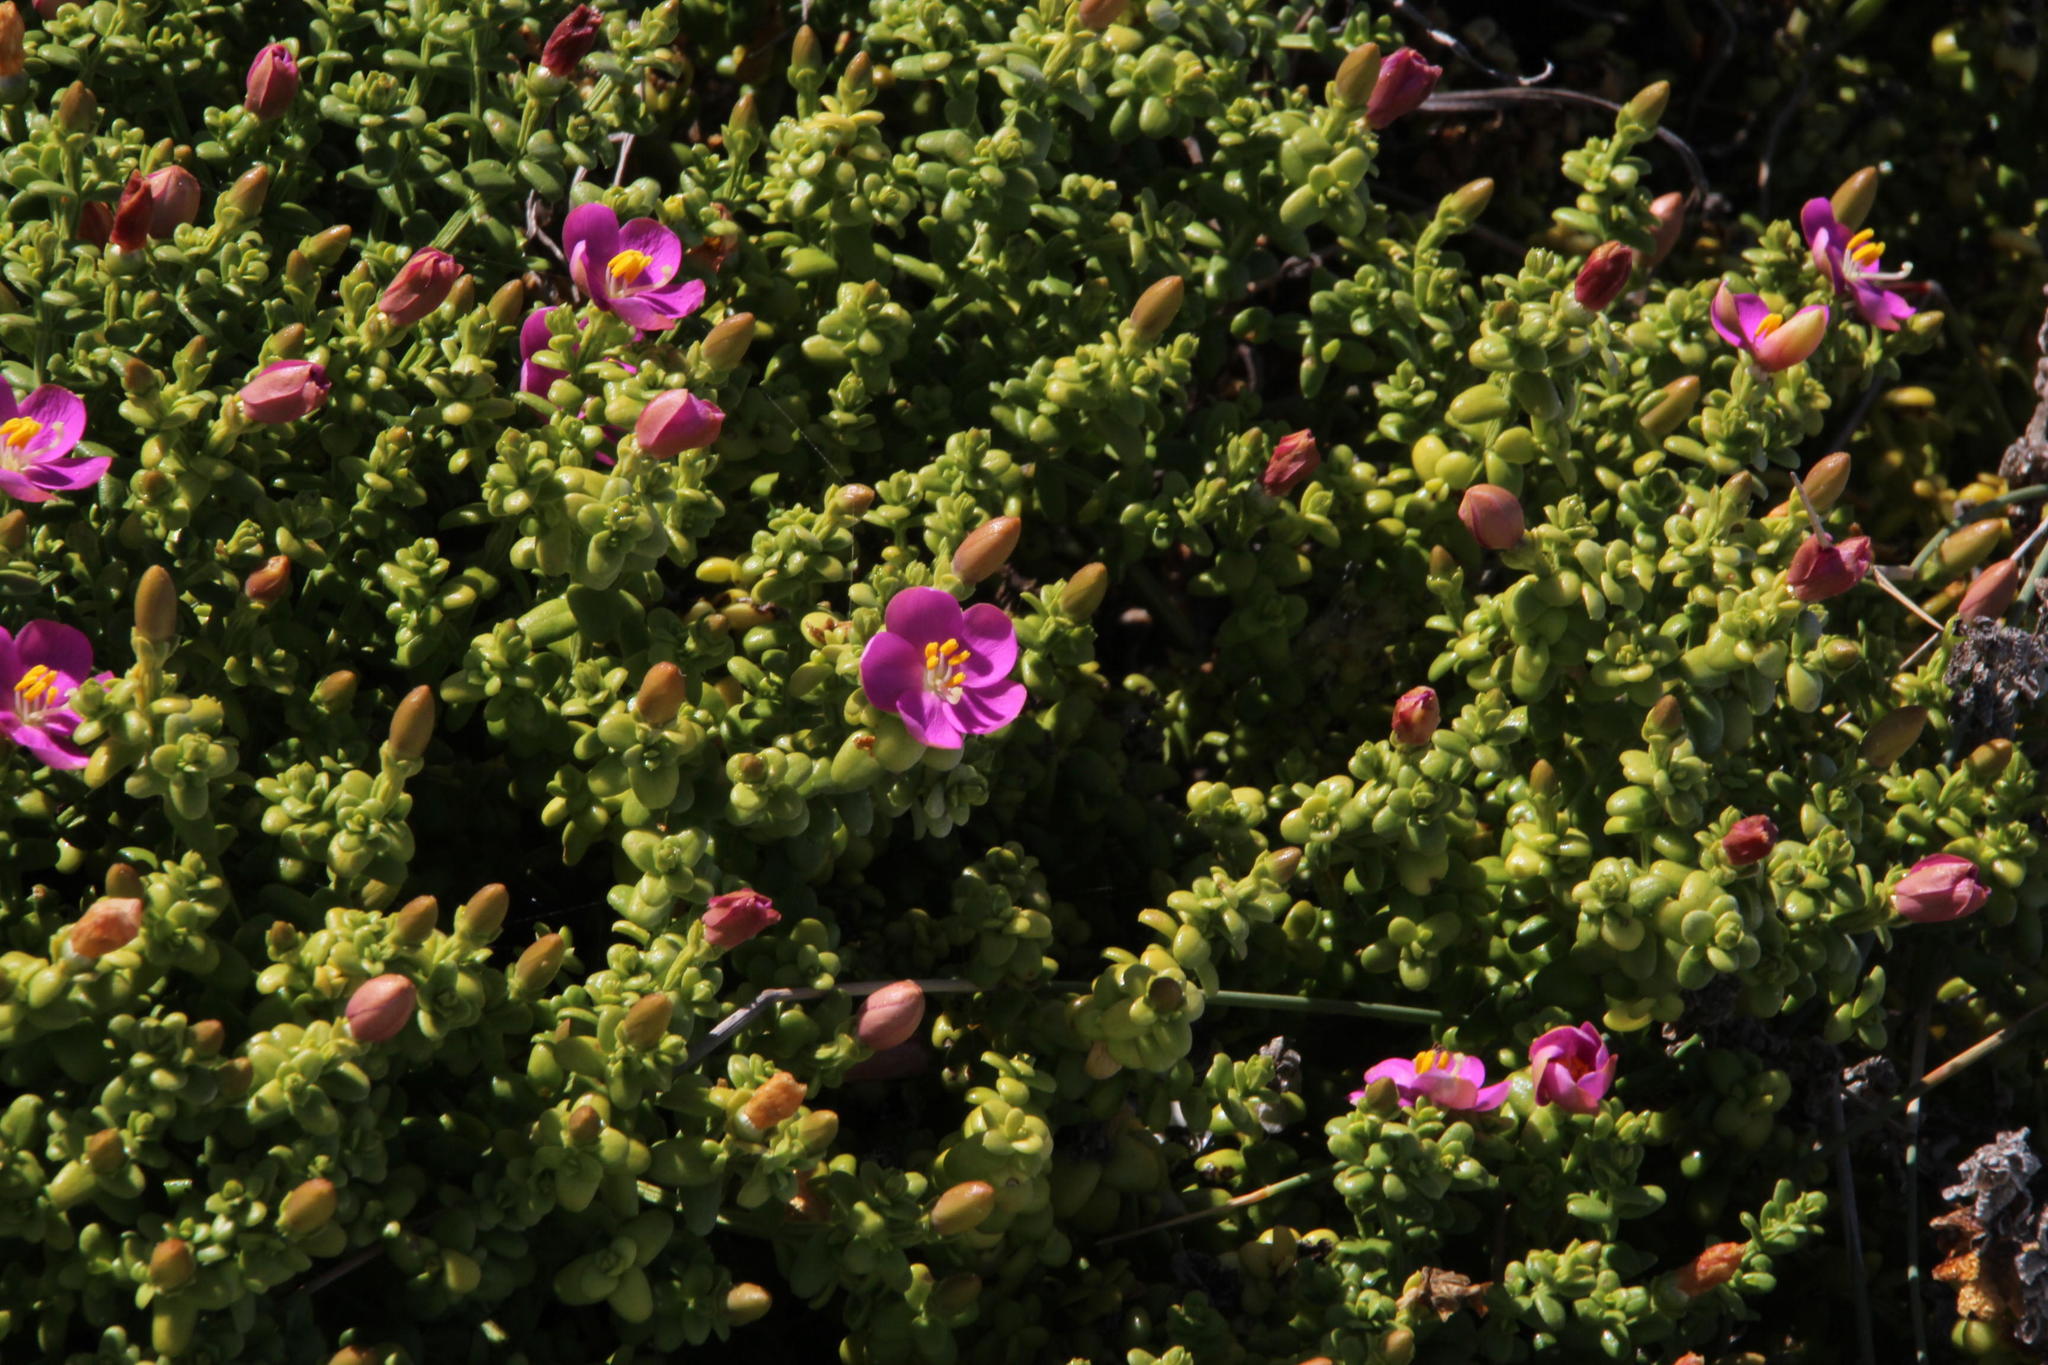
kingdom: Plantae
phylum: Tracheophyta
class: Magnoliopsida
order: Gentianales
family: Gentianaceae
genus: Chironia
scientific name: Chironia baccifera
